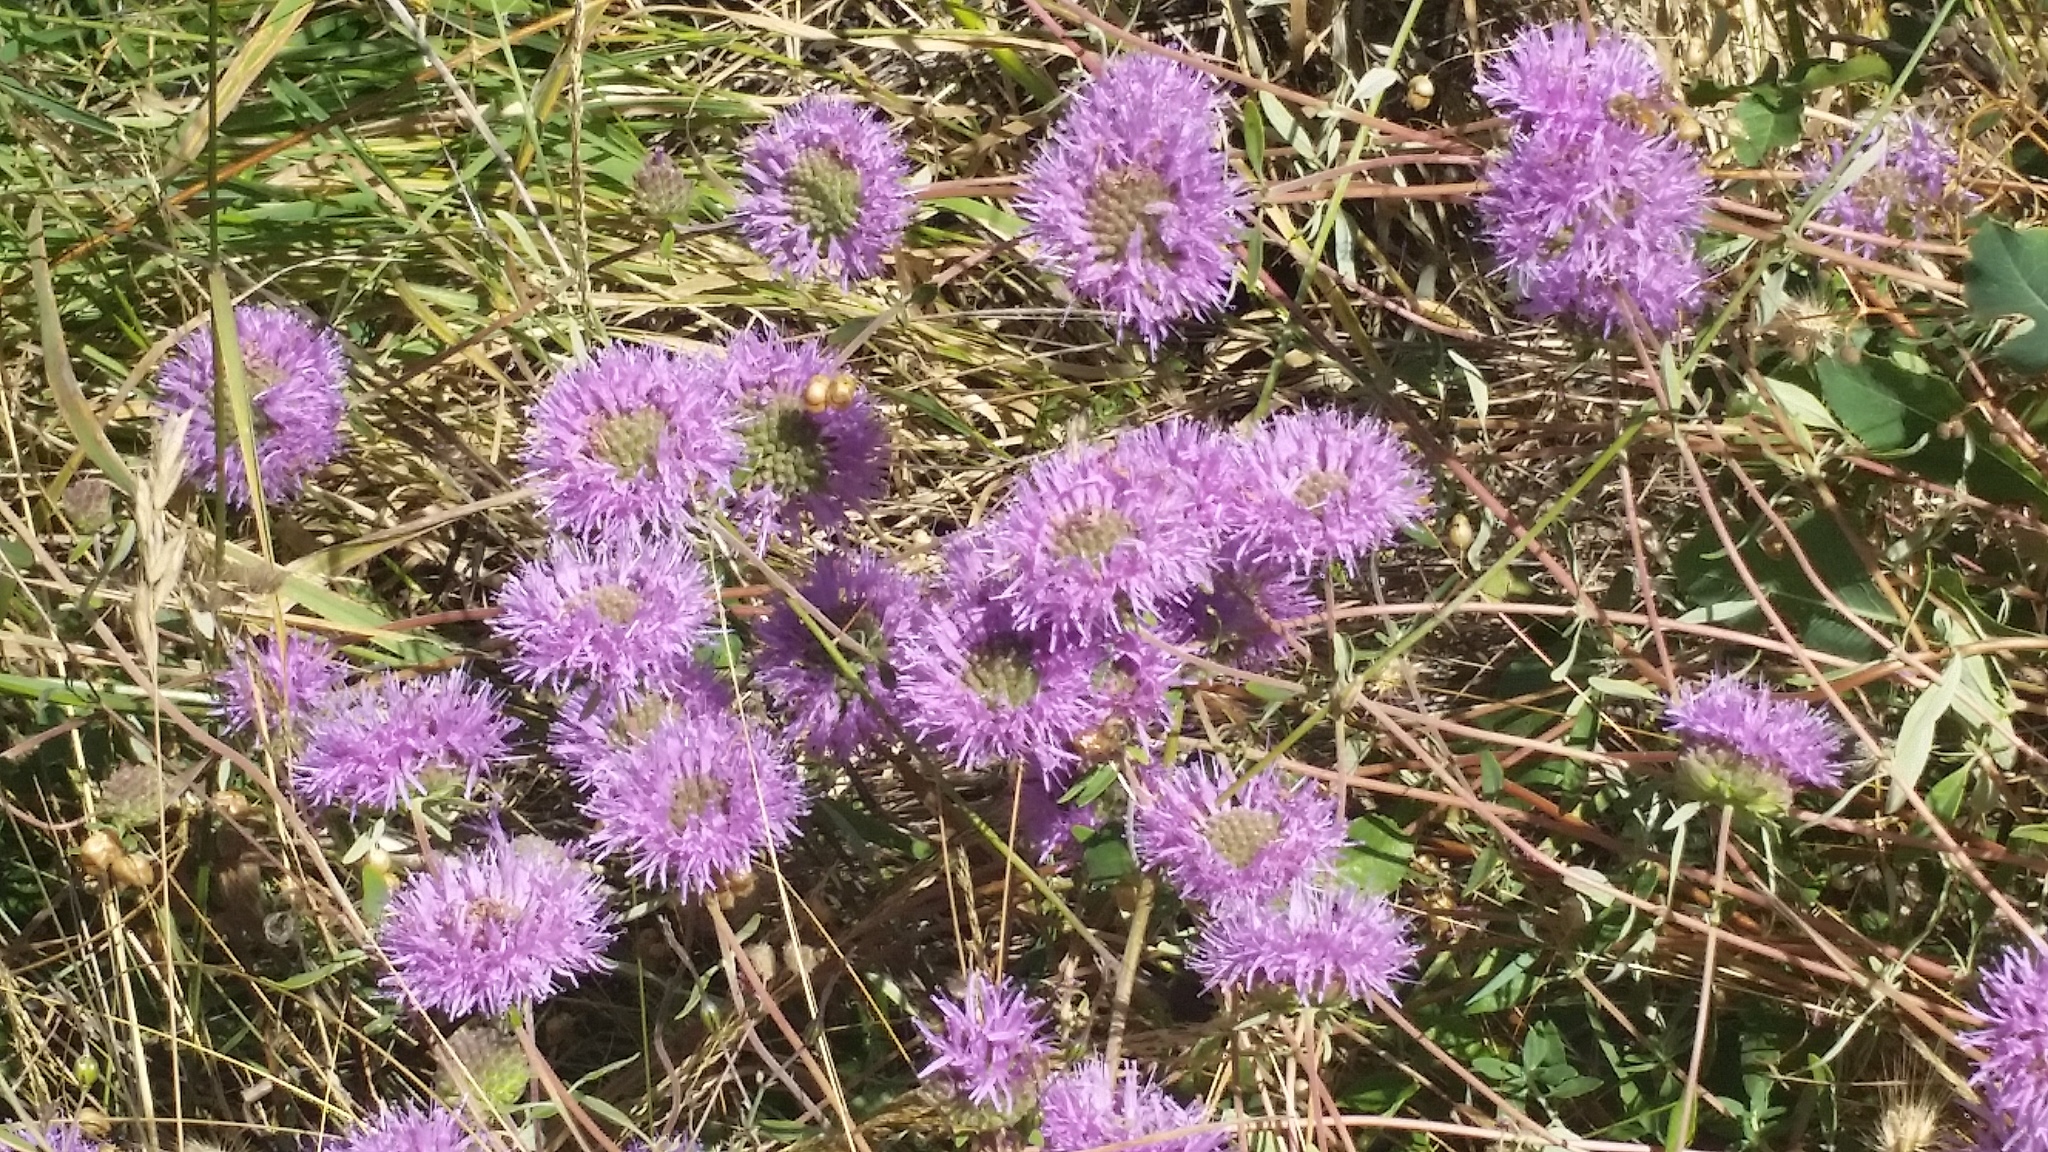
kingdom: Plantae
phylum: Tracheophyta
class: Magnoliopsida
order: Lamiales
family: Lamiaceae
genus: Monardella
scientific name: Monardella odoratissima
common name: Pacific monardella
